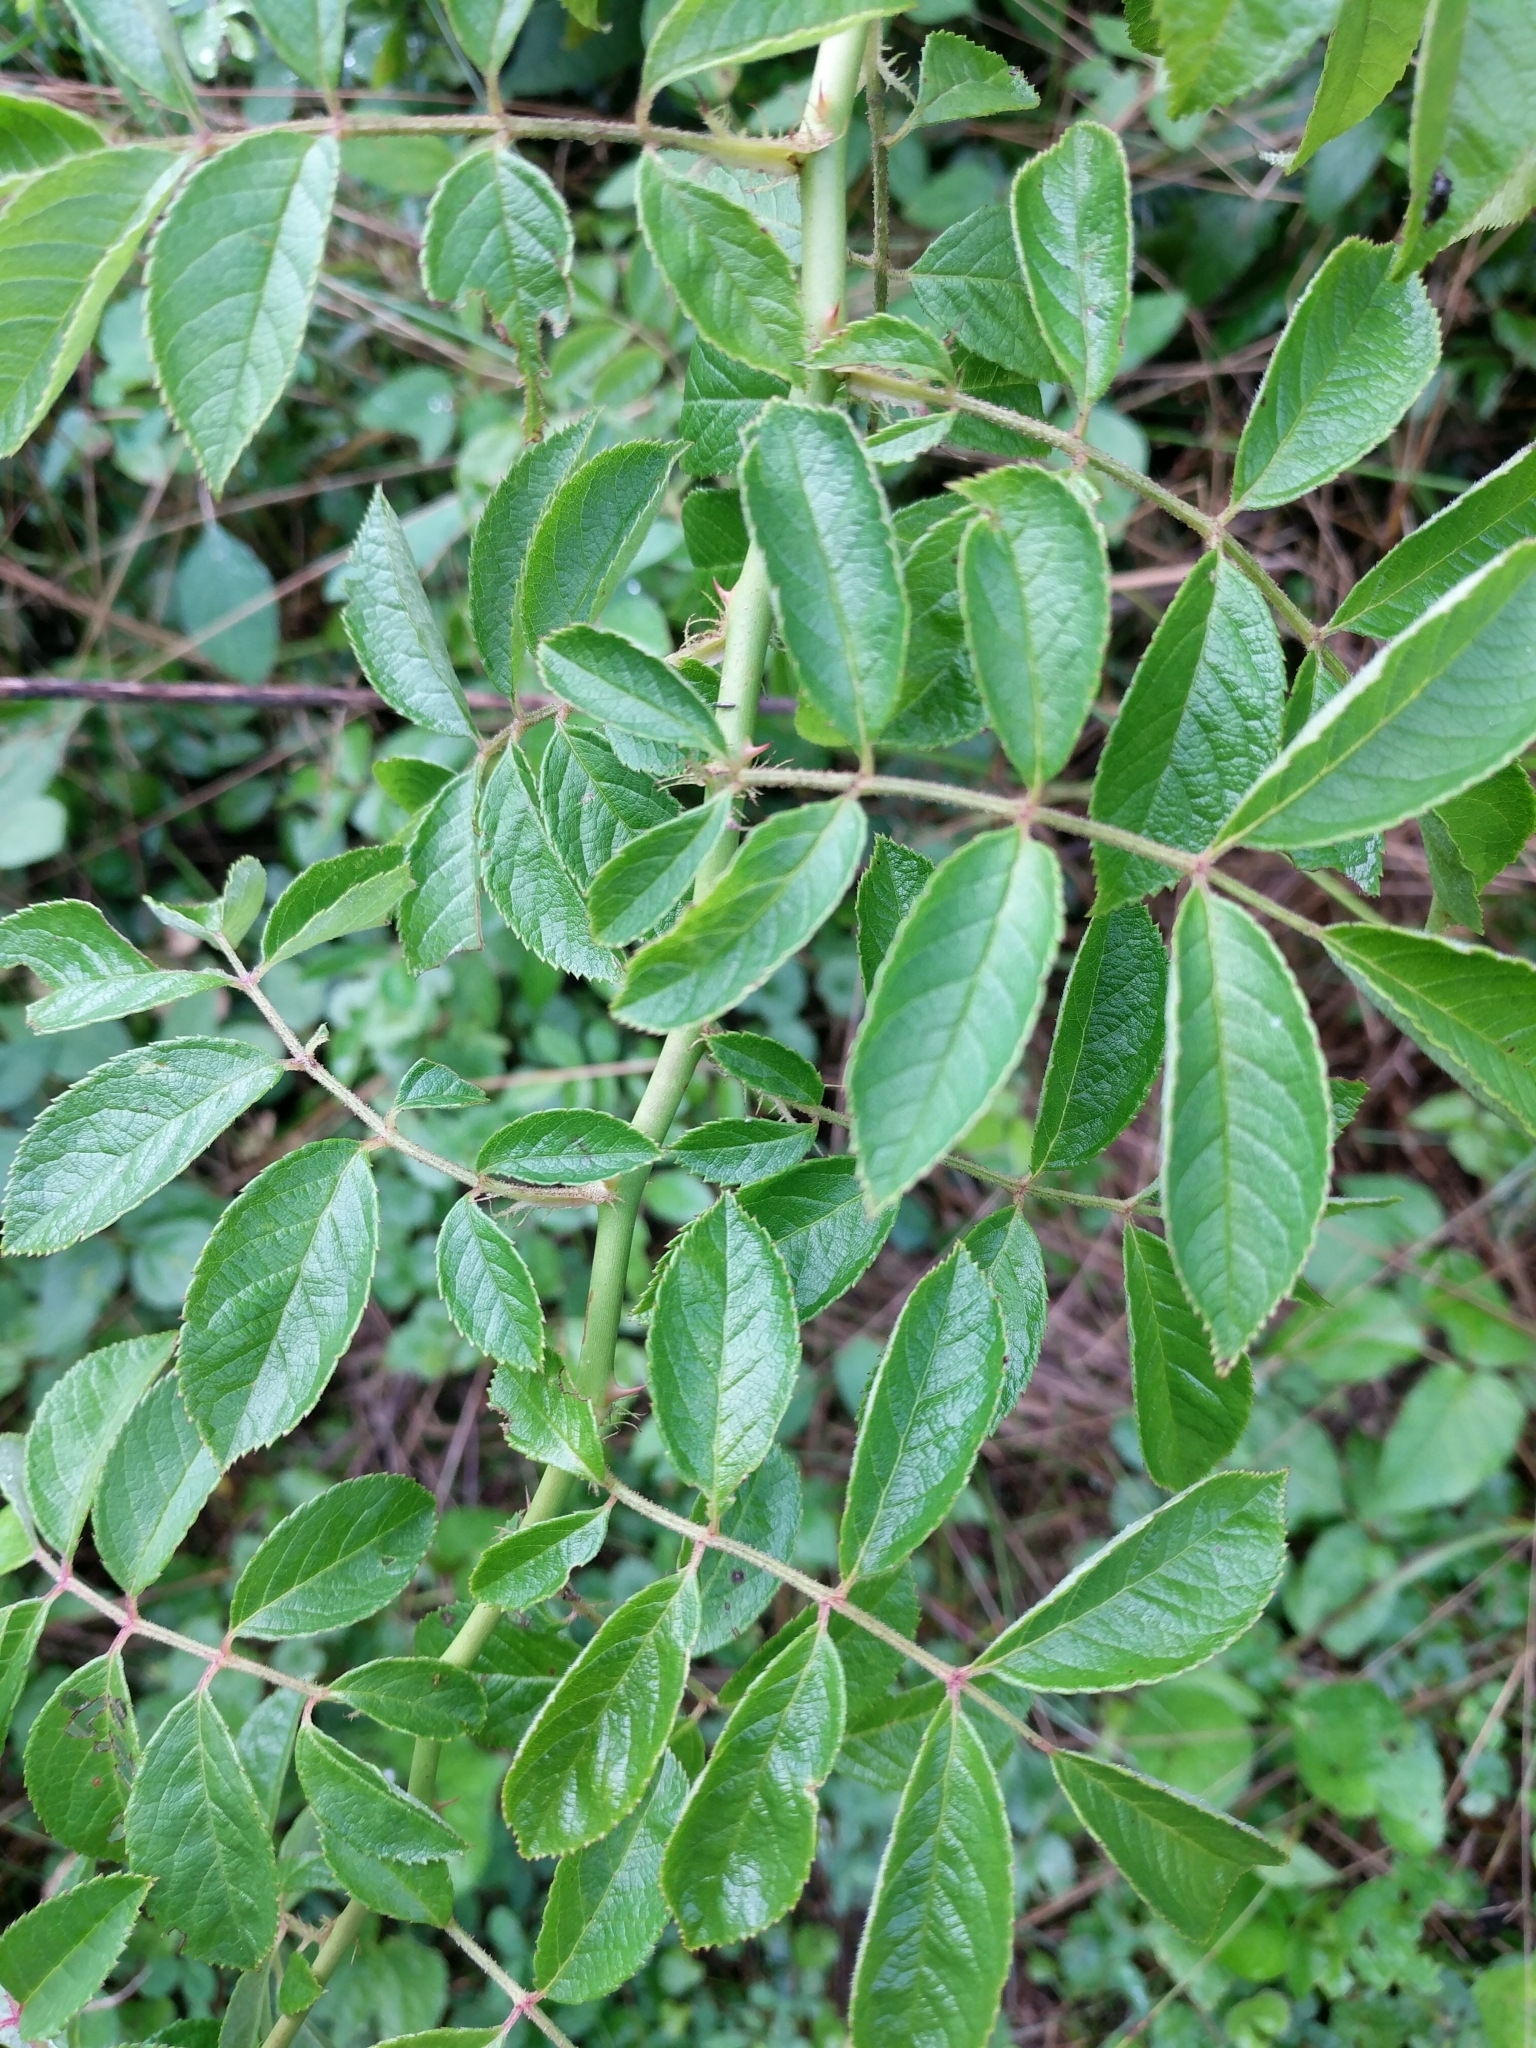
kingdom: Plantae
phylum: Tracheophyta
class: Magnoliopsida
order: Rosales
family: Rosaceae
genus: Rosa
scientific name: Rosa multiflora
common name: Multiflora rose
